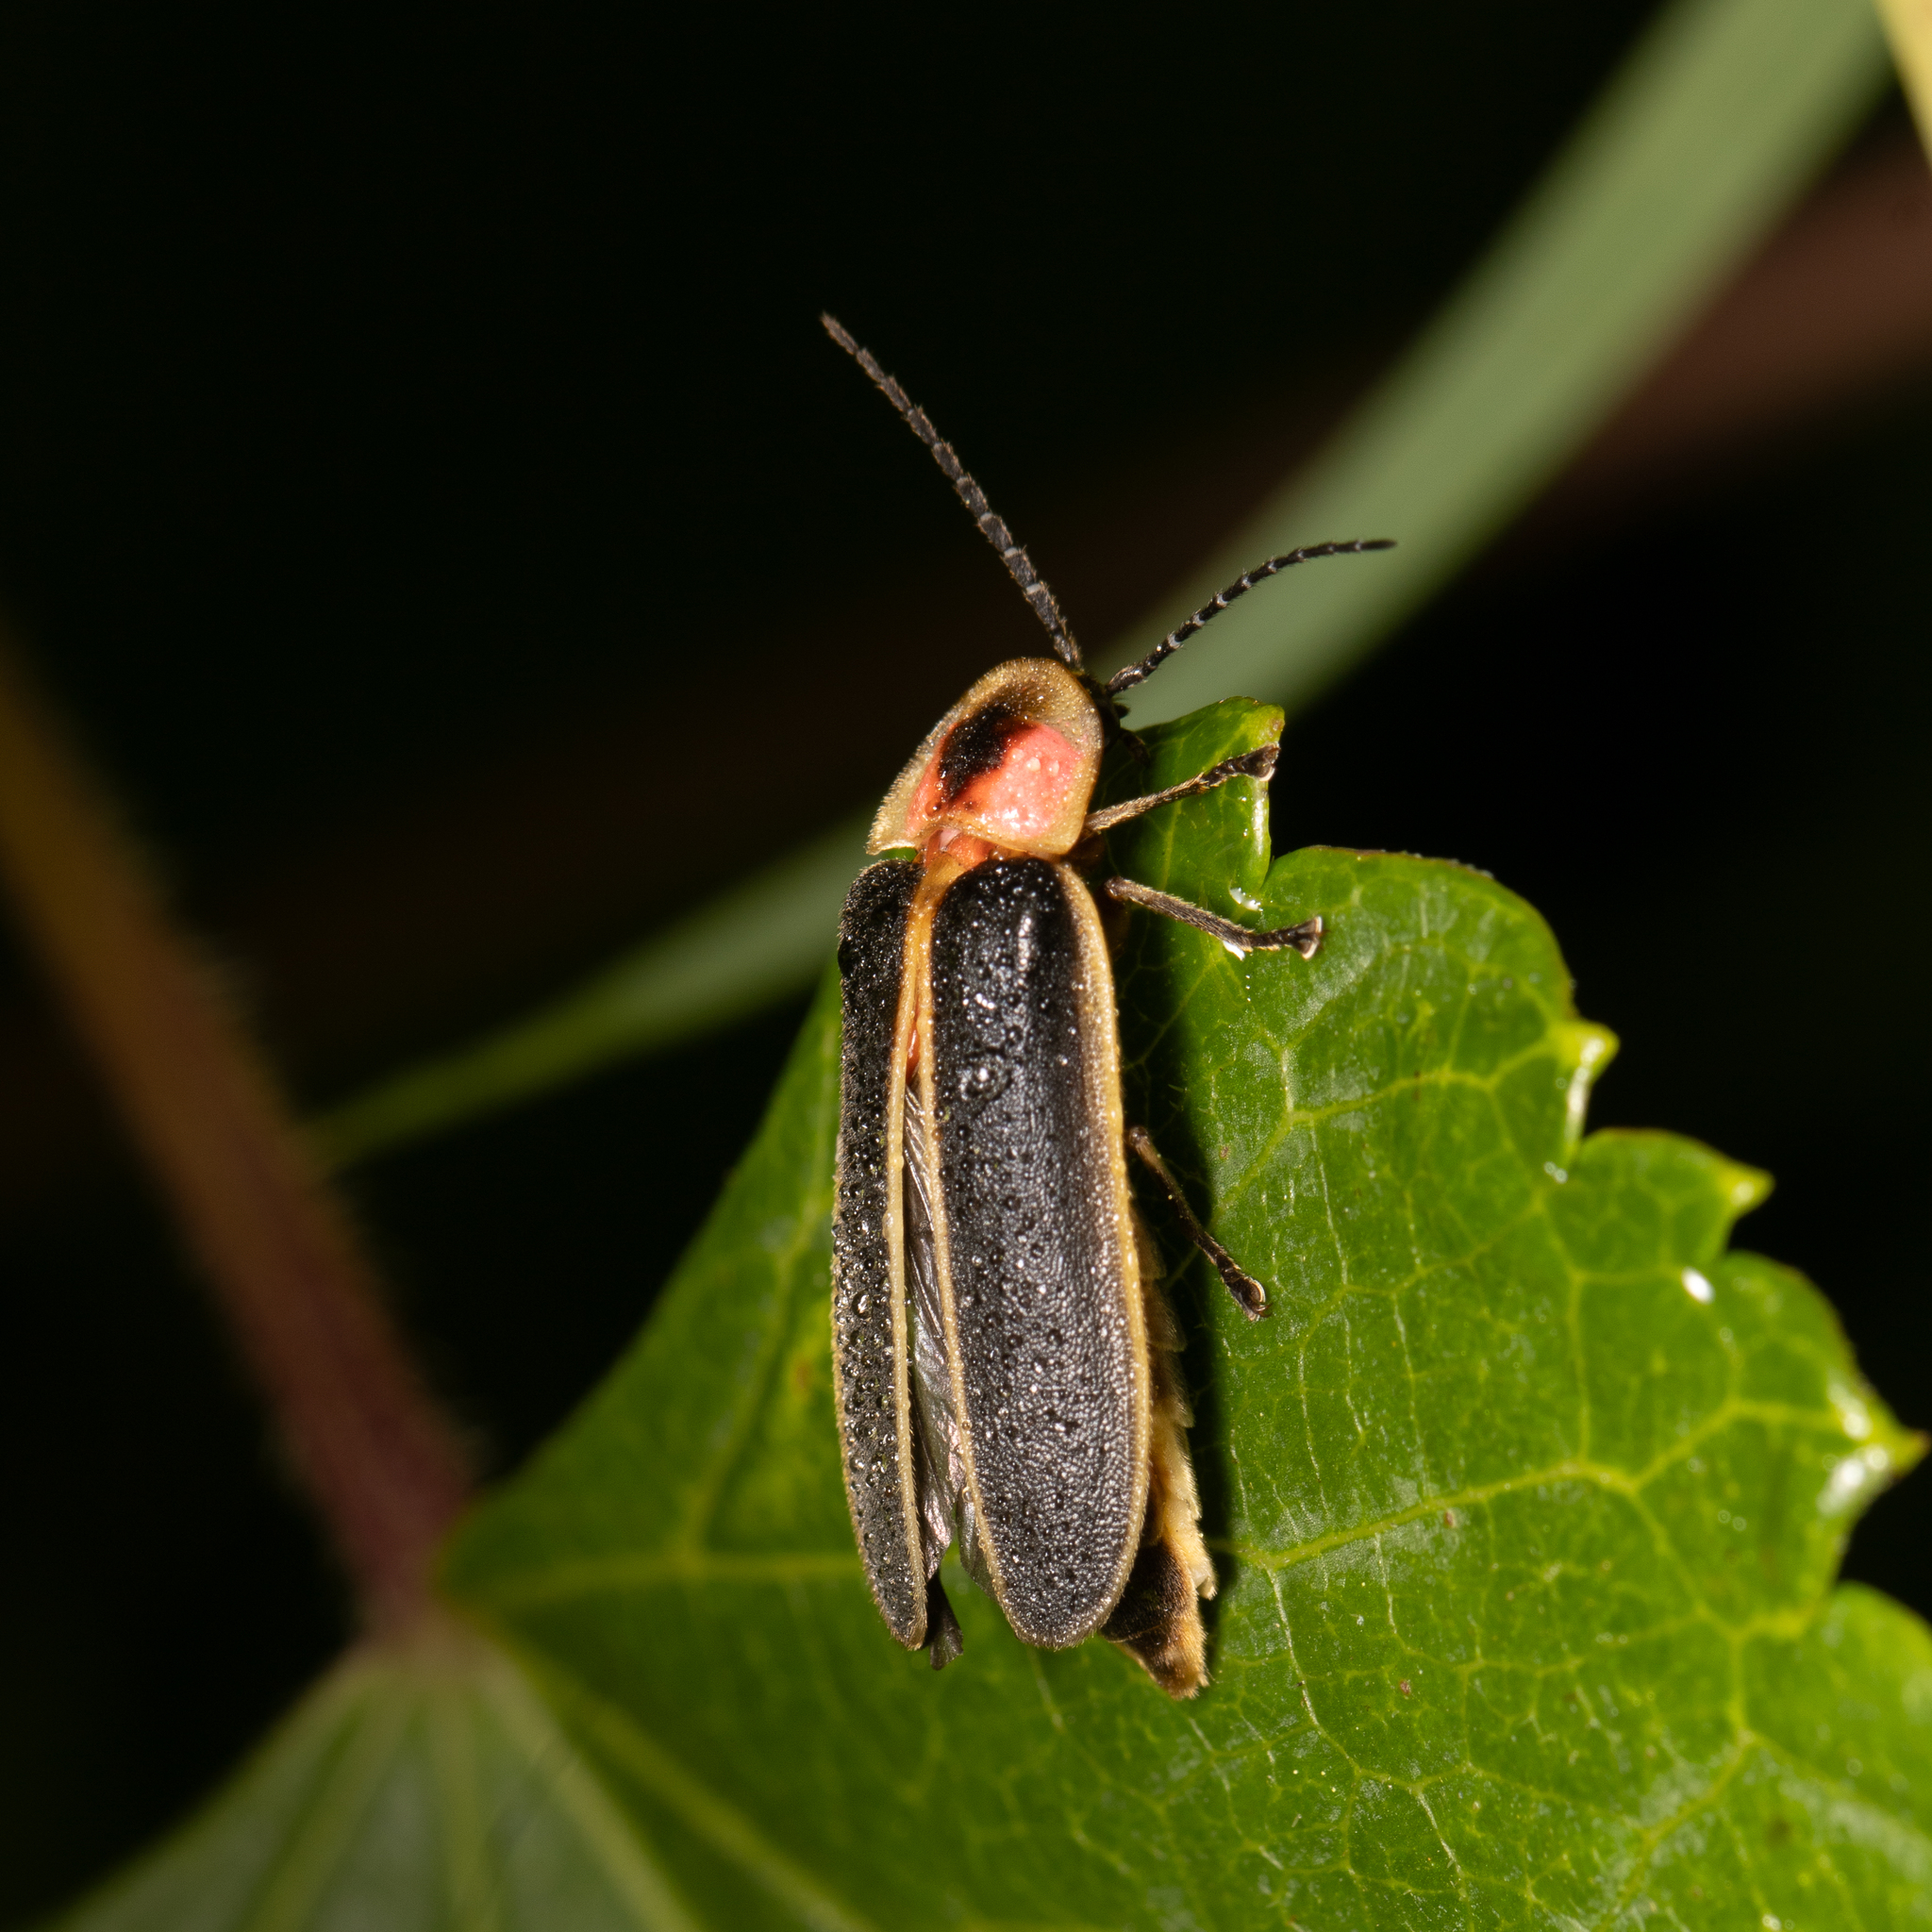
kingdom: Animalia
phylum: Arthropoda
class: Insecta
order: Coleoptera
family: Lampyridae
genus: Photinus
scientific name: Photinus pyralis
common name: Big dipper firefly
